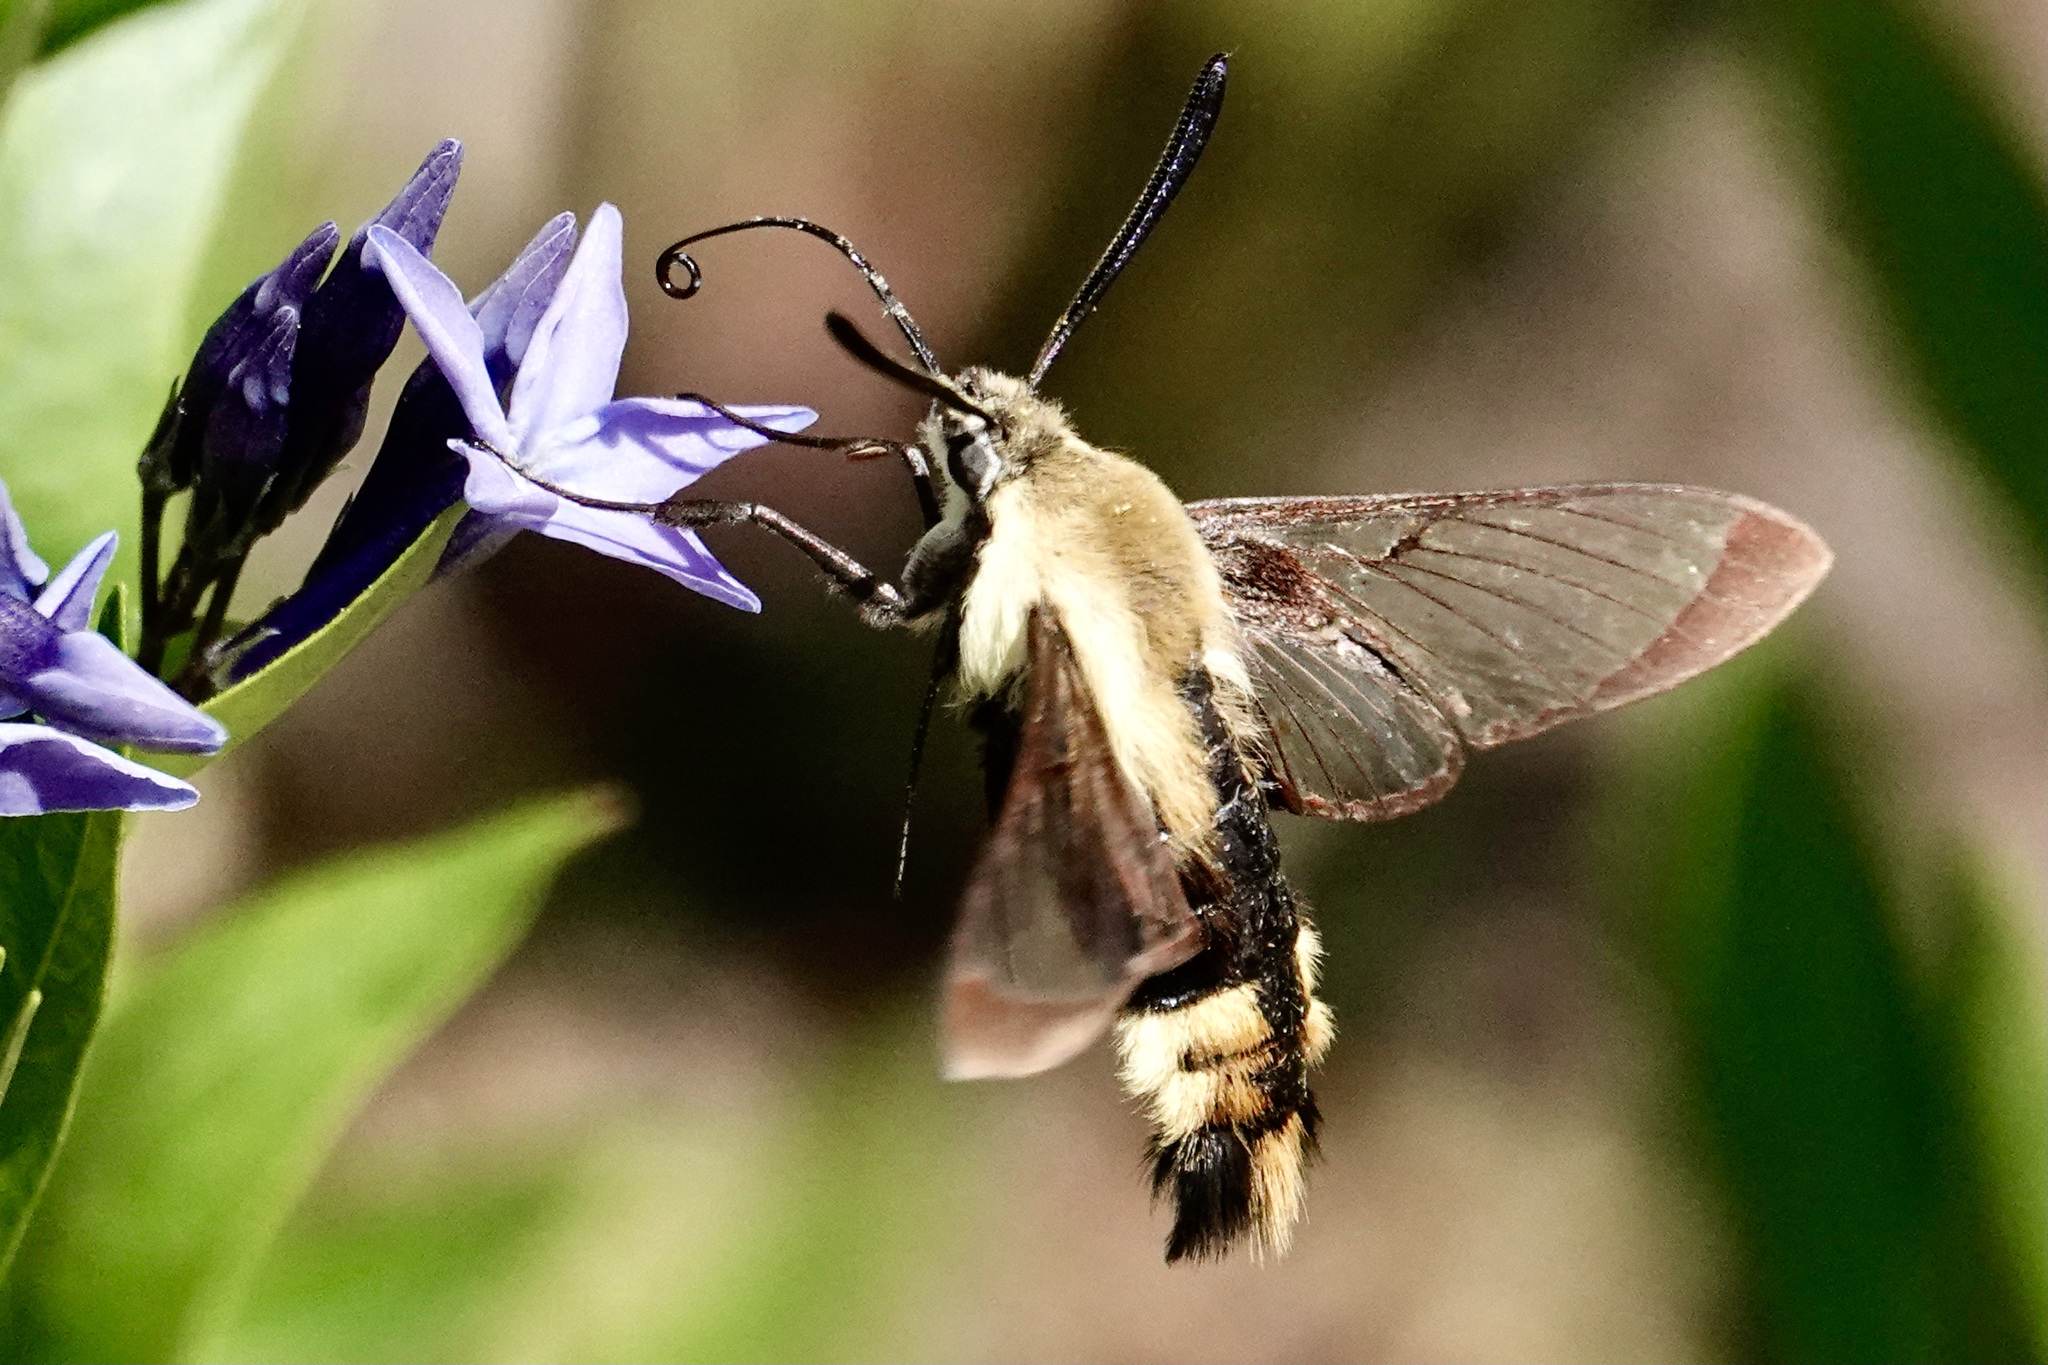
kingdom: Animalia
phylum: Arthropoda
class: Insecta
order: Lepidoptera
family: Sphingidae
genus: Hemaris
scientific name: Hemaris diffinis
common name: Bumblebee moth
